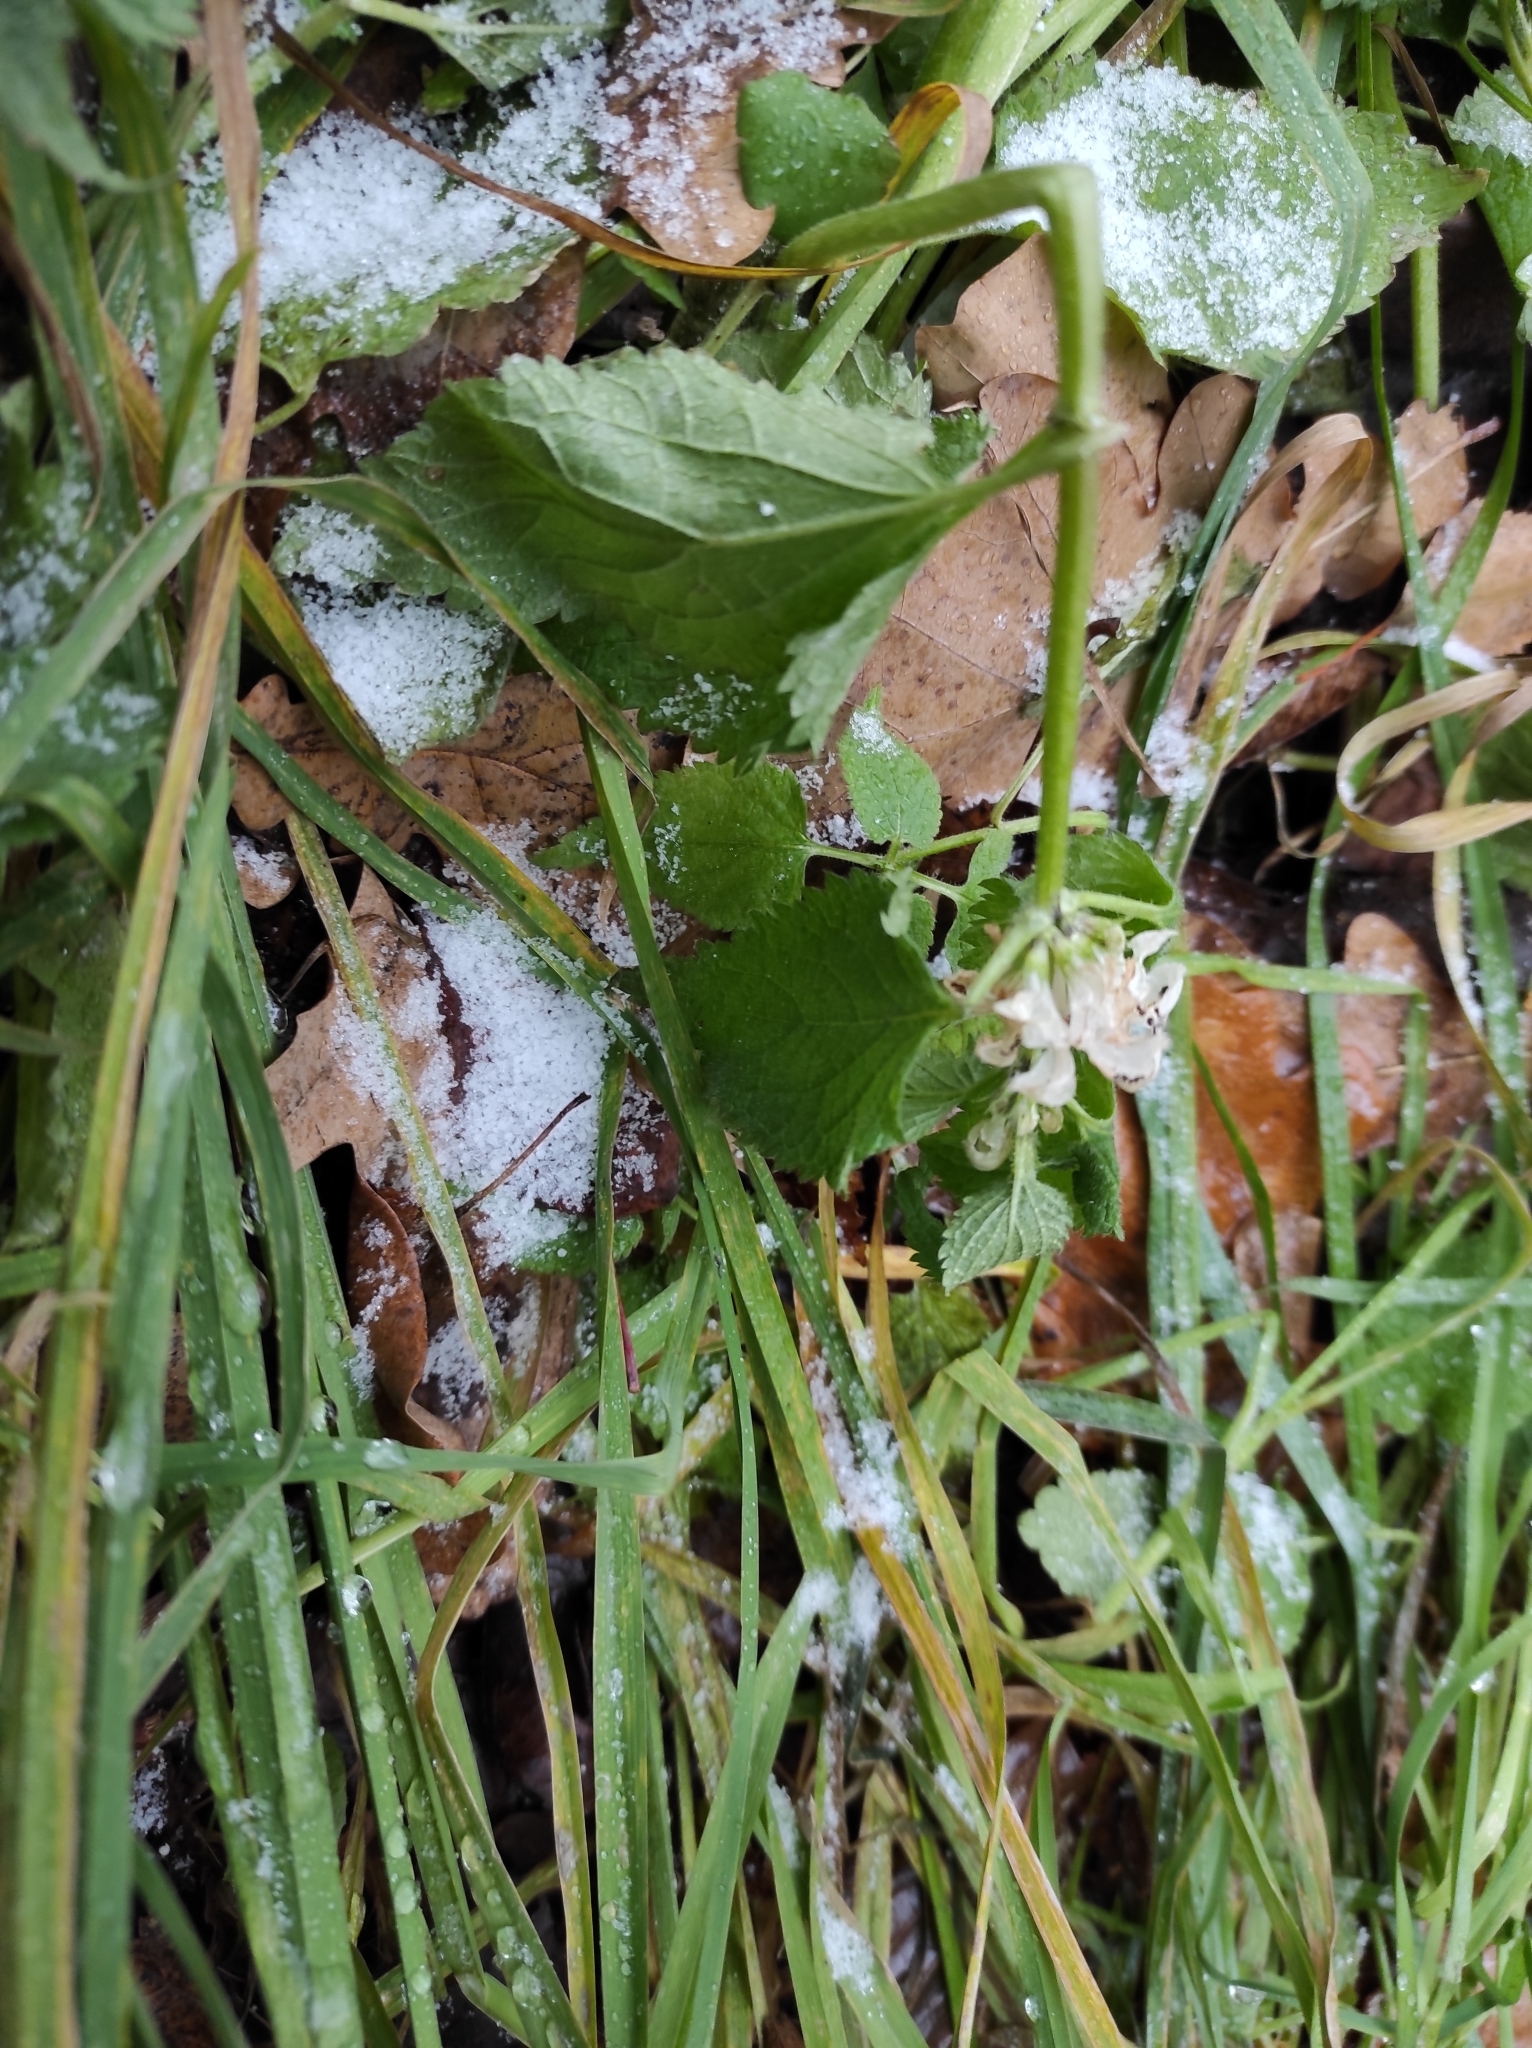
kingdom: Plantae
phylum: Tracheophyta
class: Magnoliopsida
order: Lamiales
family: Lamiaceae
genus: Lamium
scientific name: Lamium album
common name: White dead-nettle
